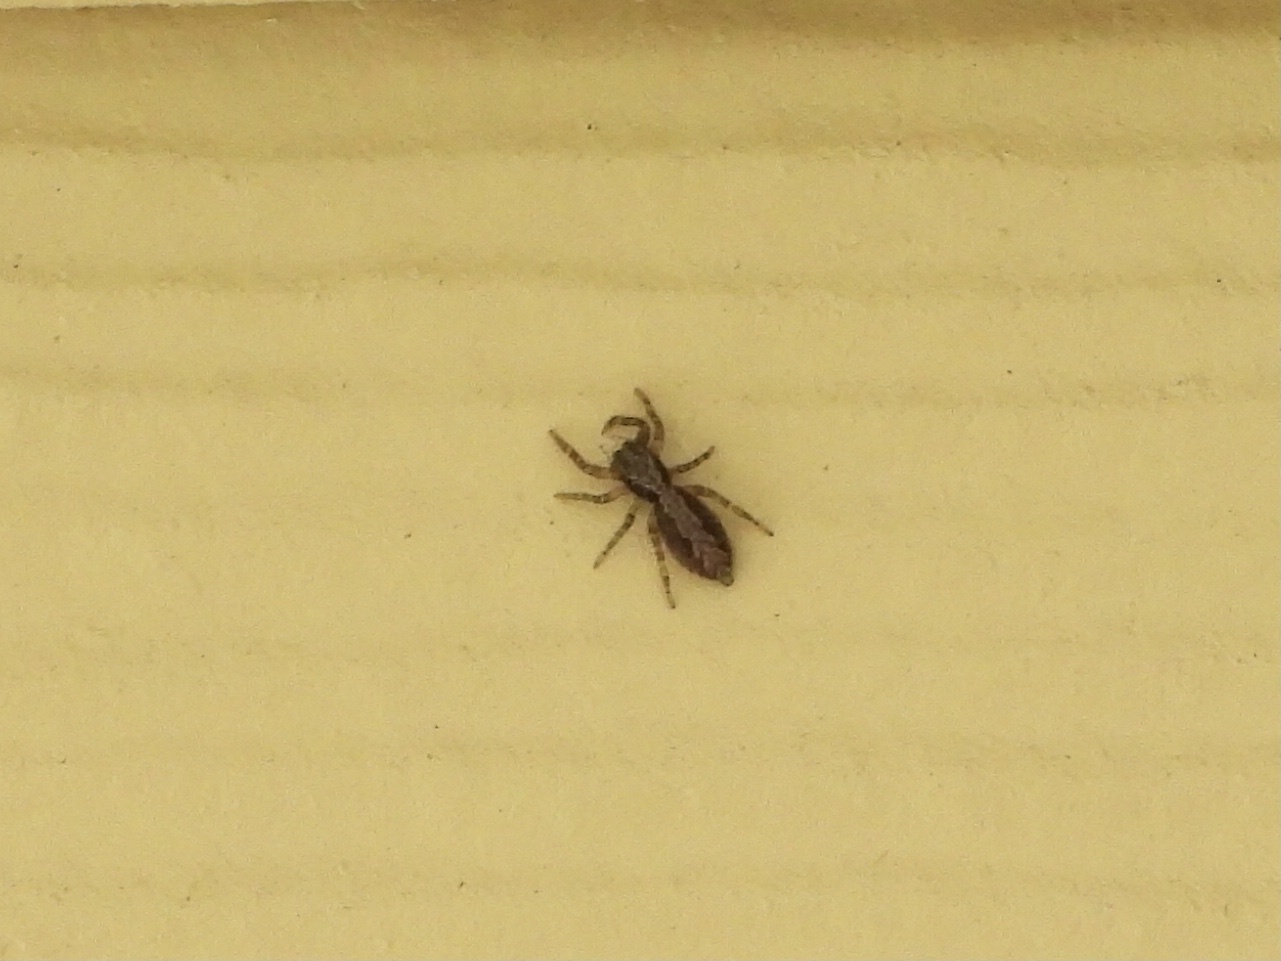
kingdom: Animalia
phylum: Arthropoda
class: Arachnida
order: Araneae
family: Salticidae
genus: Platycryptus
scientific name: Platycryptus californicus
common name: Jumping spiders
